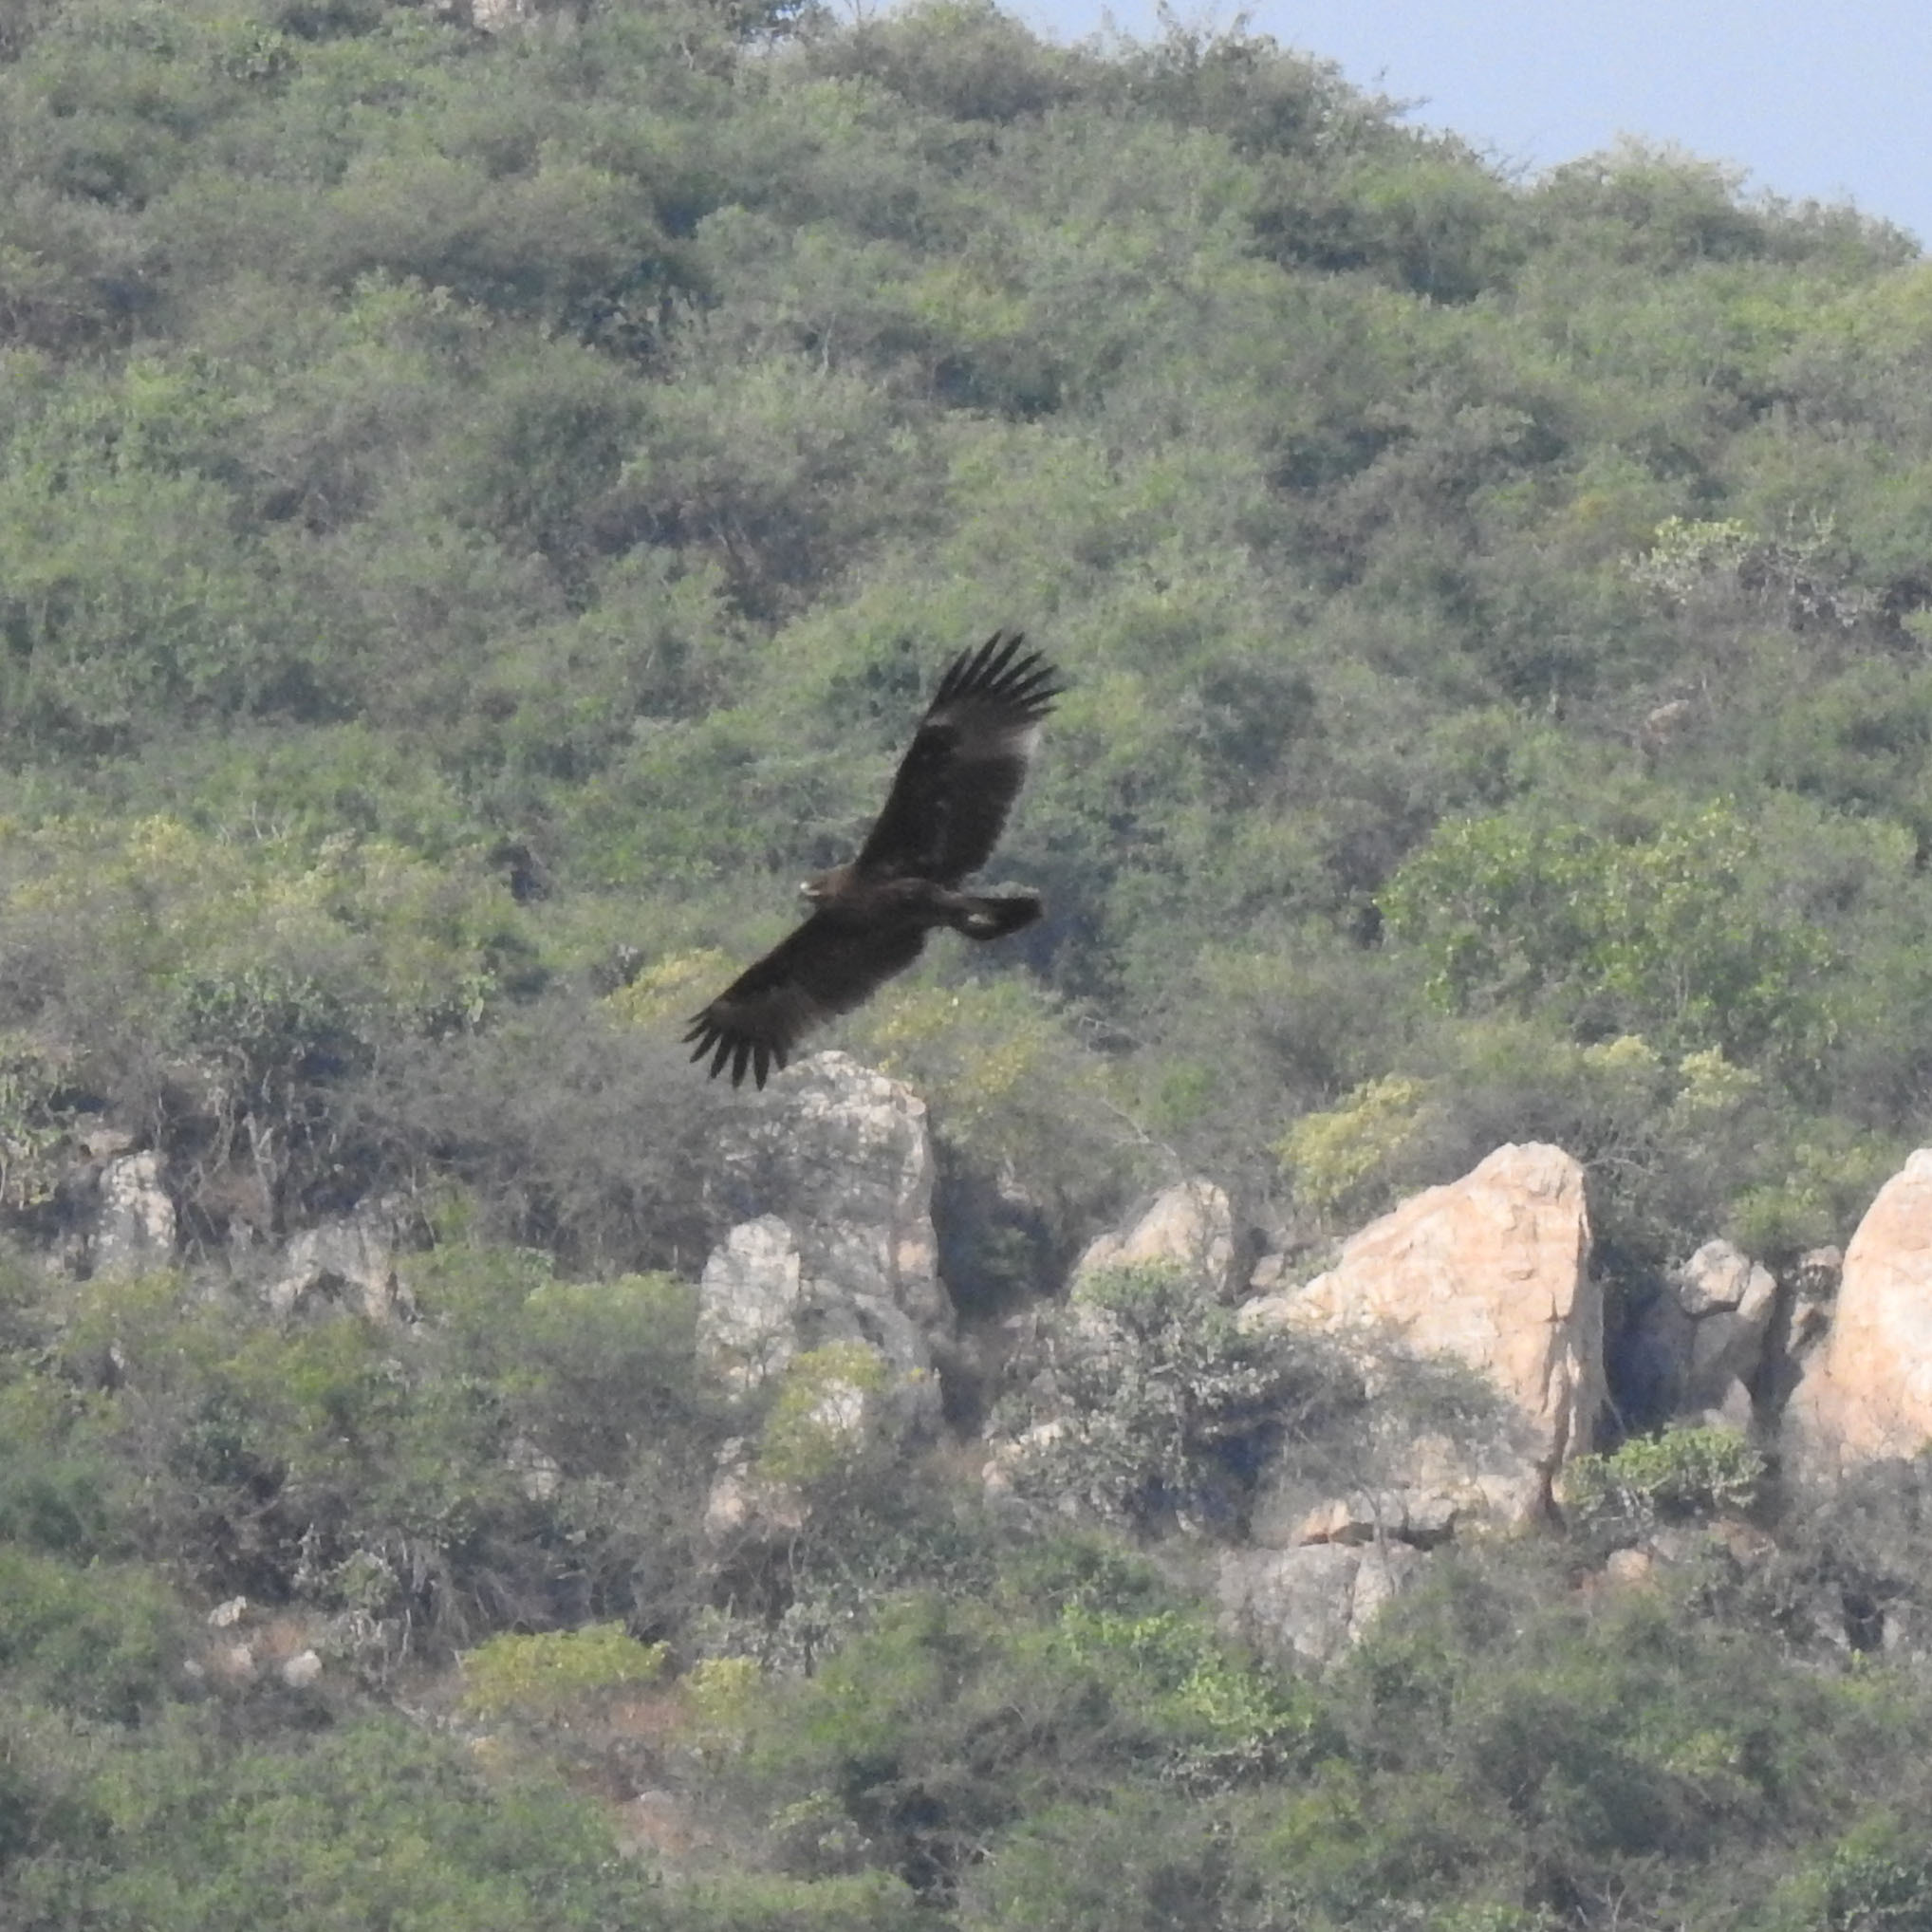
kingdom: Animalia
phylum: Chordata
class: Aves
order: Accipitriformes
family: Accipitridae
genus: Aquila
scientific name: Aquila hastata
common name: Indian spotted eagle
